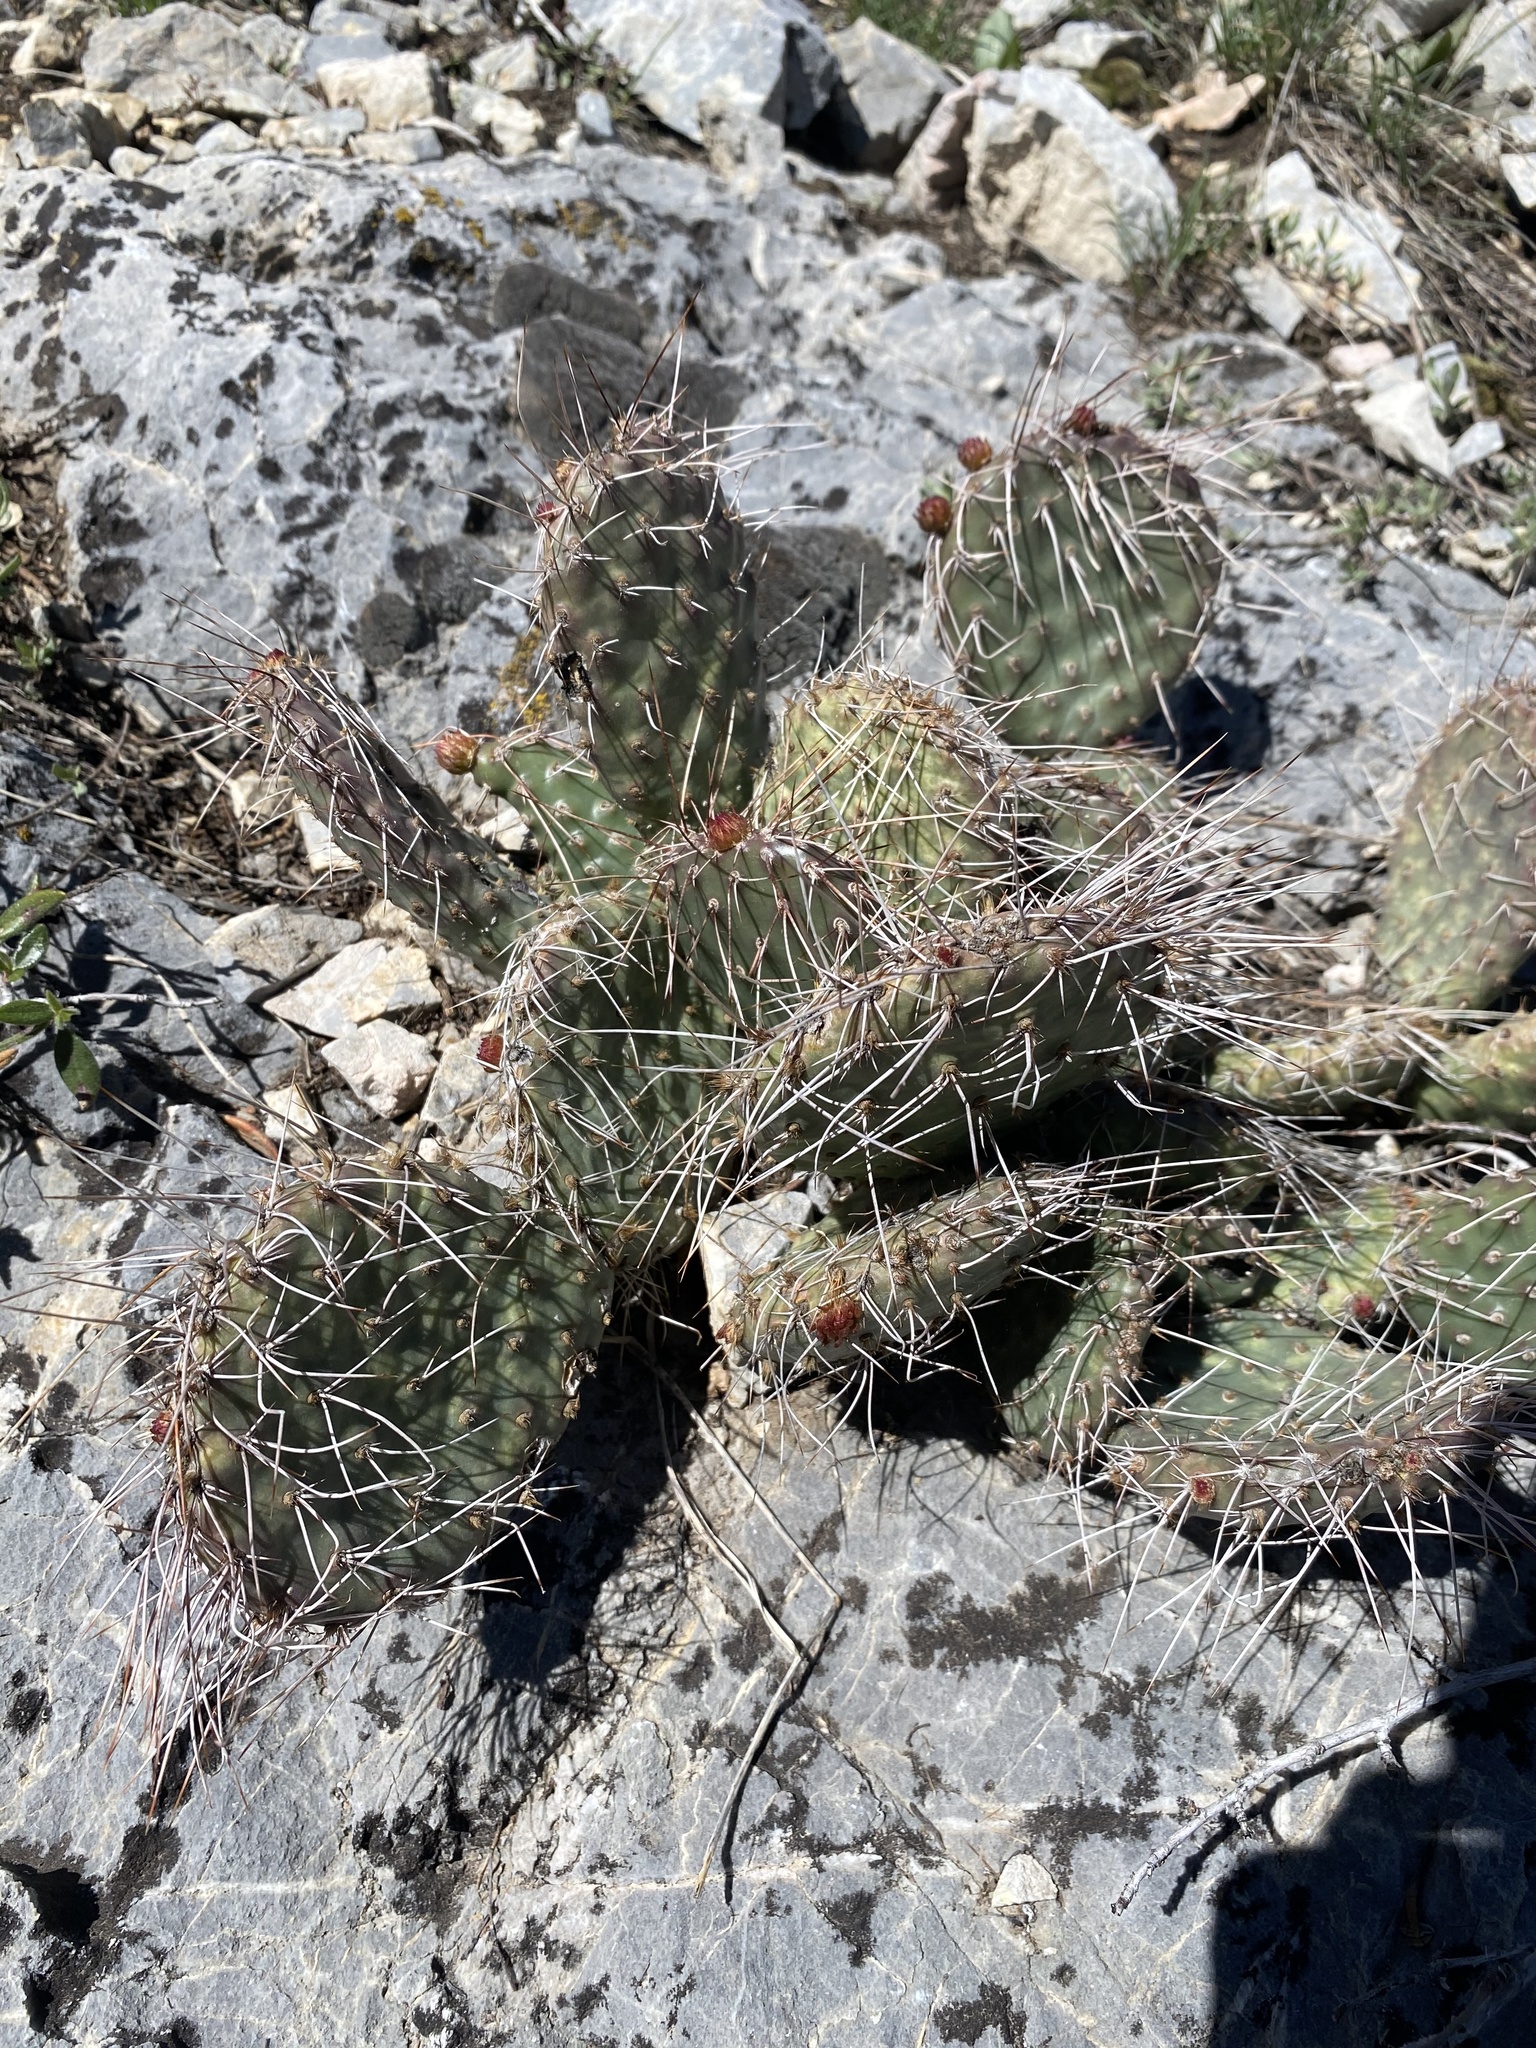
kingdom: Plantae
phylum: Tracheophyta
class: Magnoliopsida
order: Caryophyllales
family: Cactaceae
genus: Opuntia
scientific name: Opuntia polyacantha
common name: Plains prickly-pear
